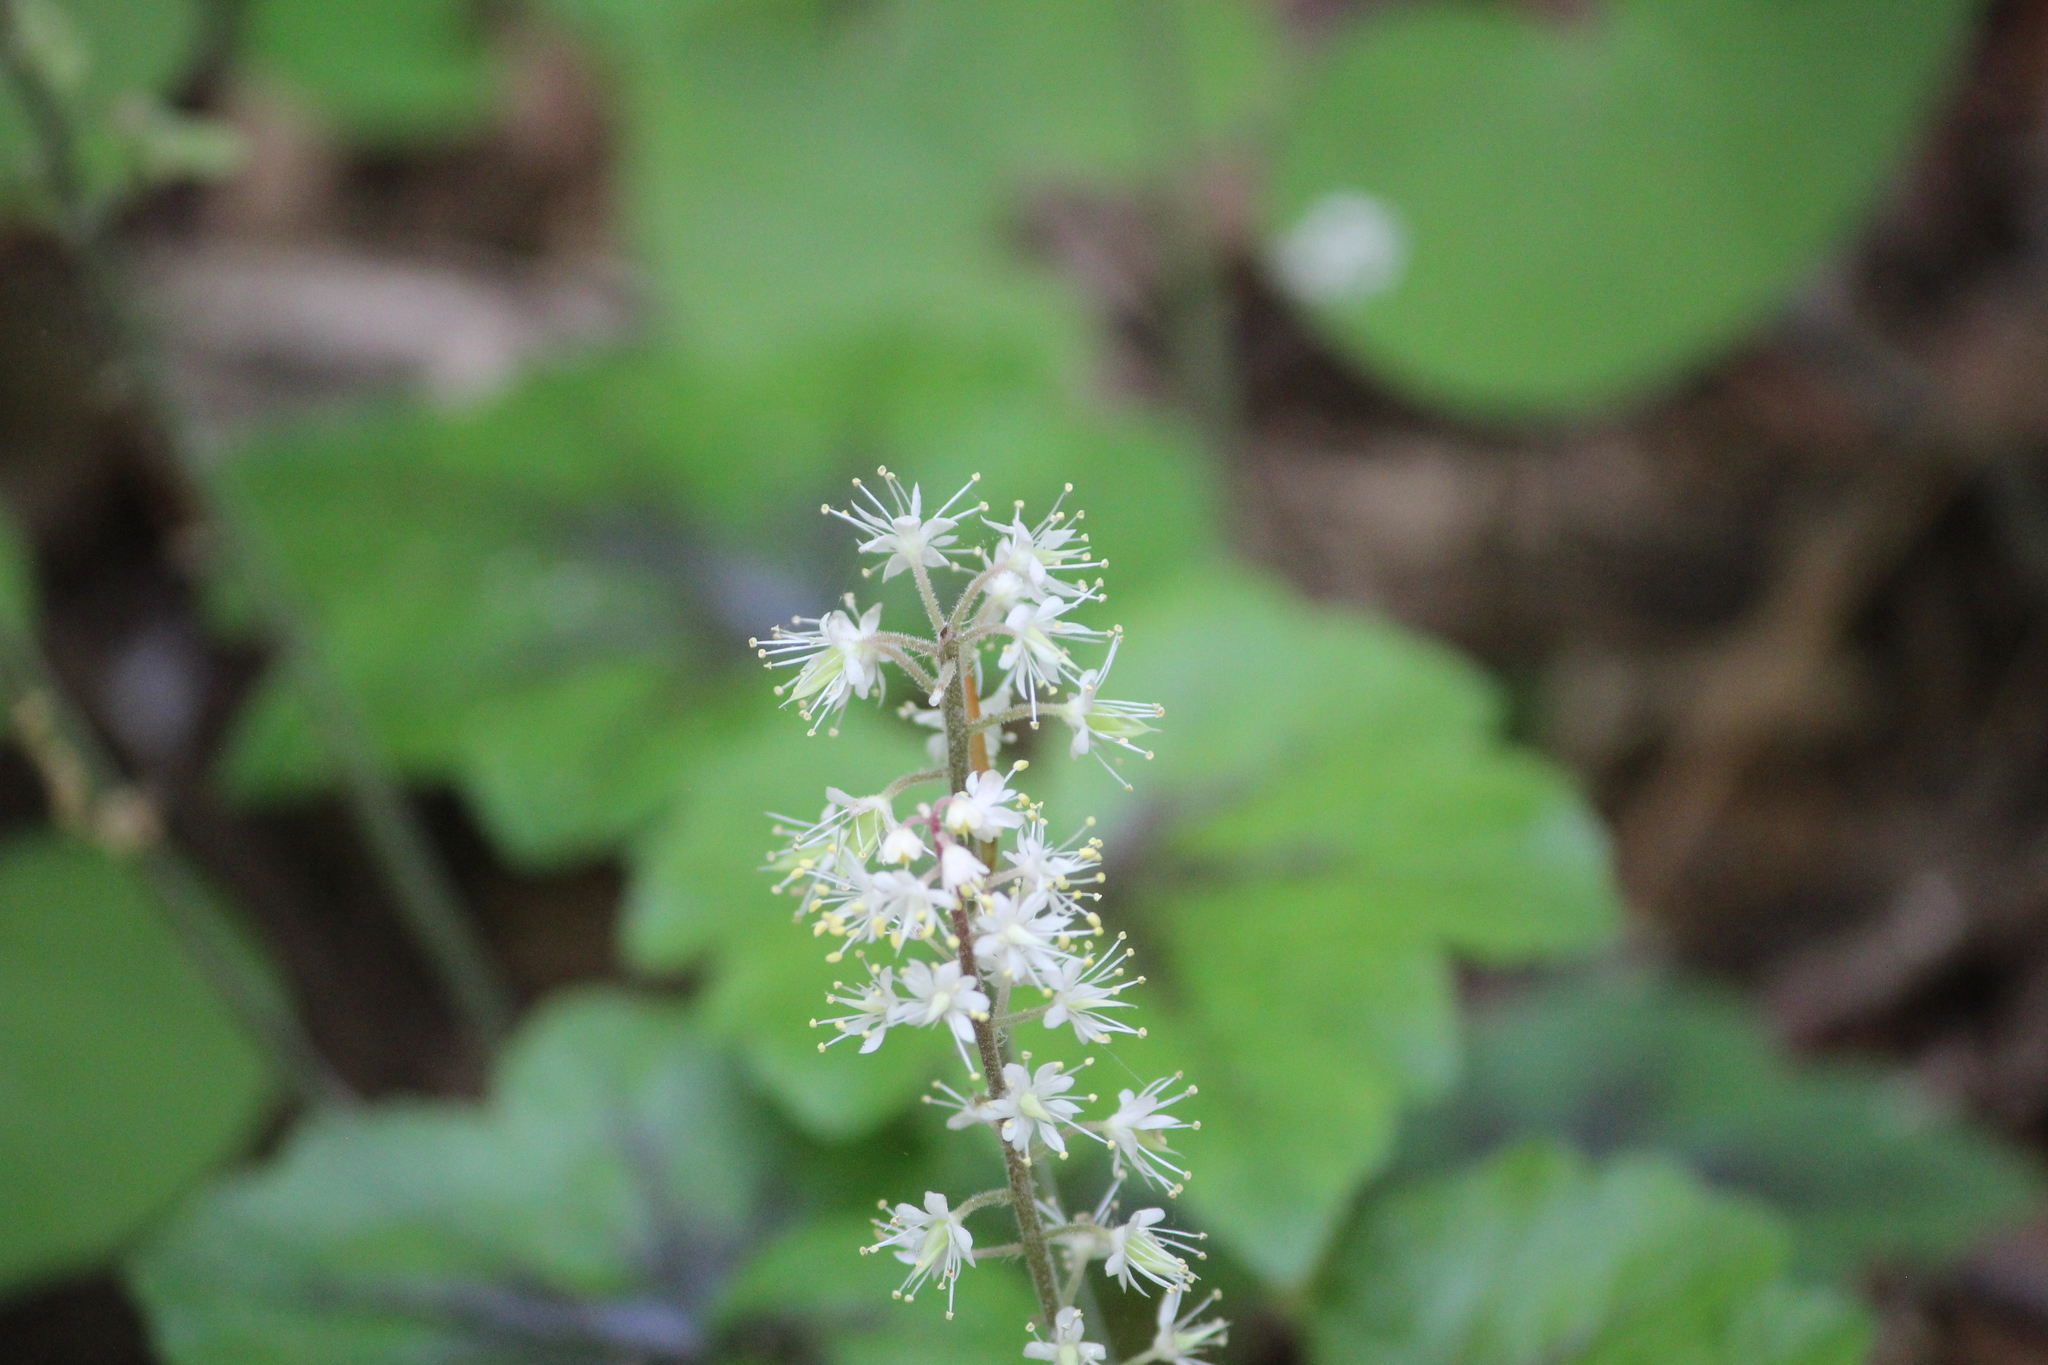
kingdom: Plantae
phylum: Tracheophyta
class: Magnoliopsida
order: Saxifragales
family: Saxifragaceae
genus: Tiarella
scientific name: Tiarella cordifolia
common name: Foamflower
